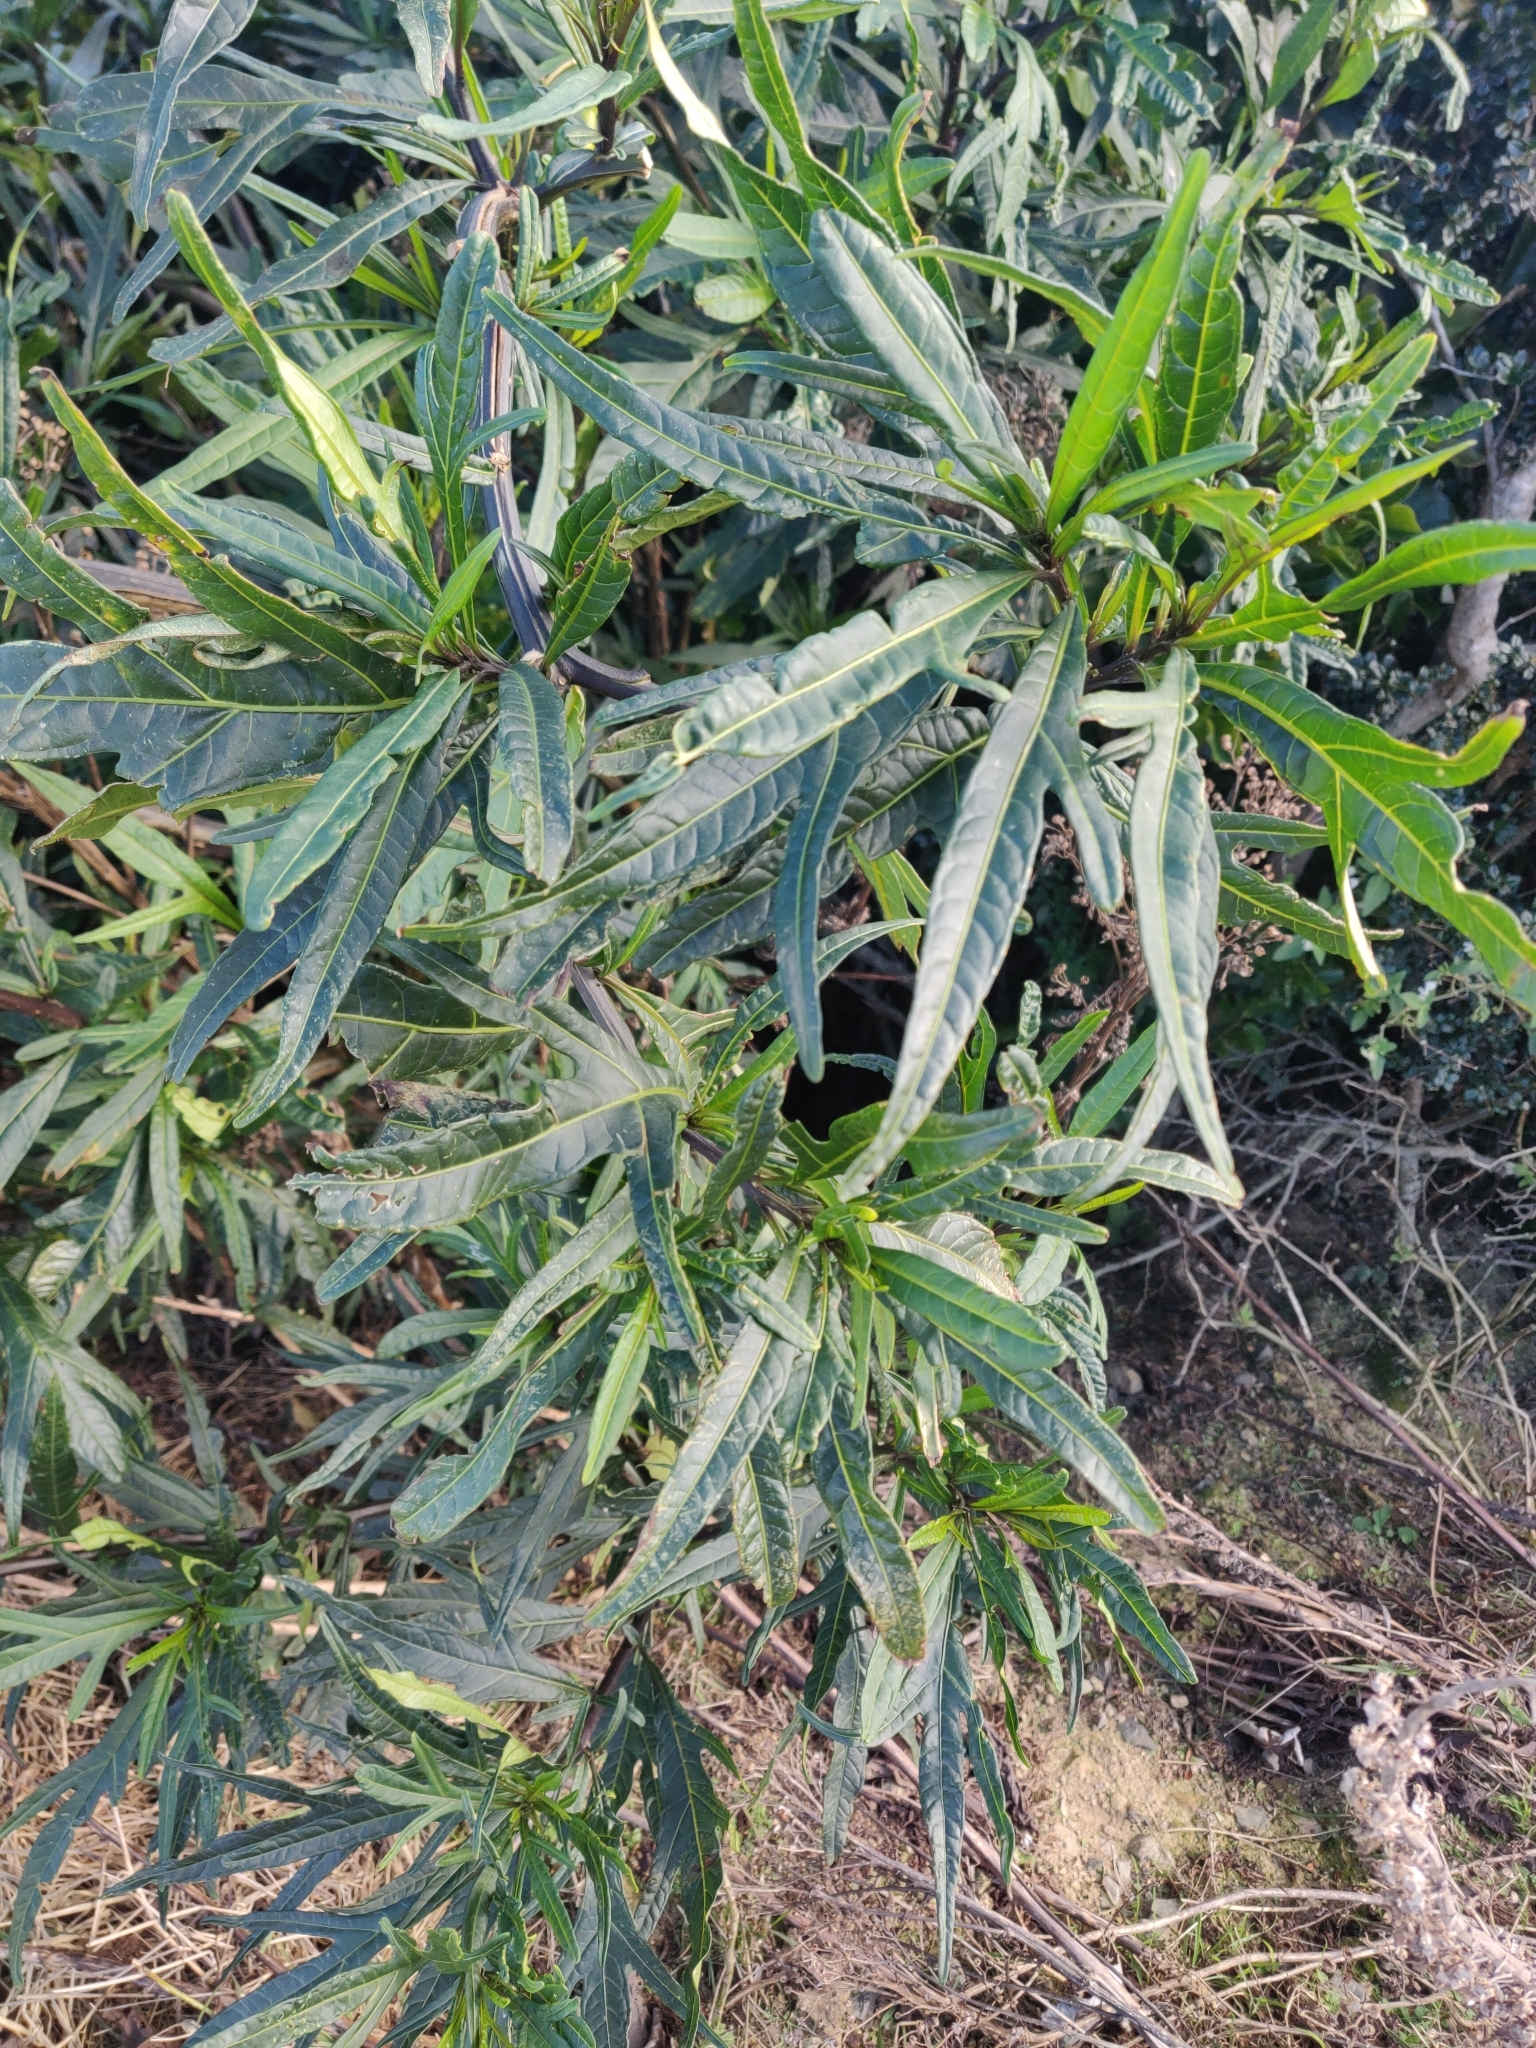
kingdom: Plantae
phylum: Tracheophyta
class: Magnoliopsida
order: Solanales
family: Solanaceae
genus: Solanum
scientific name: Solanum
